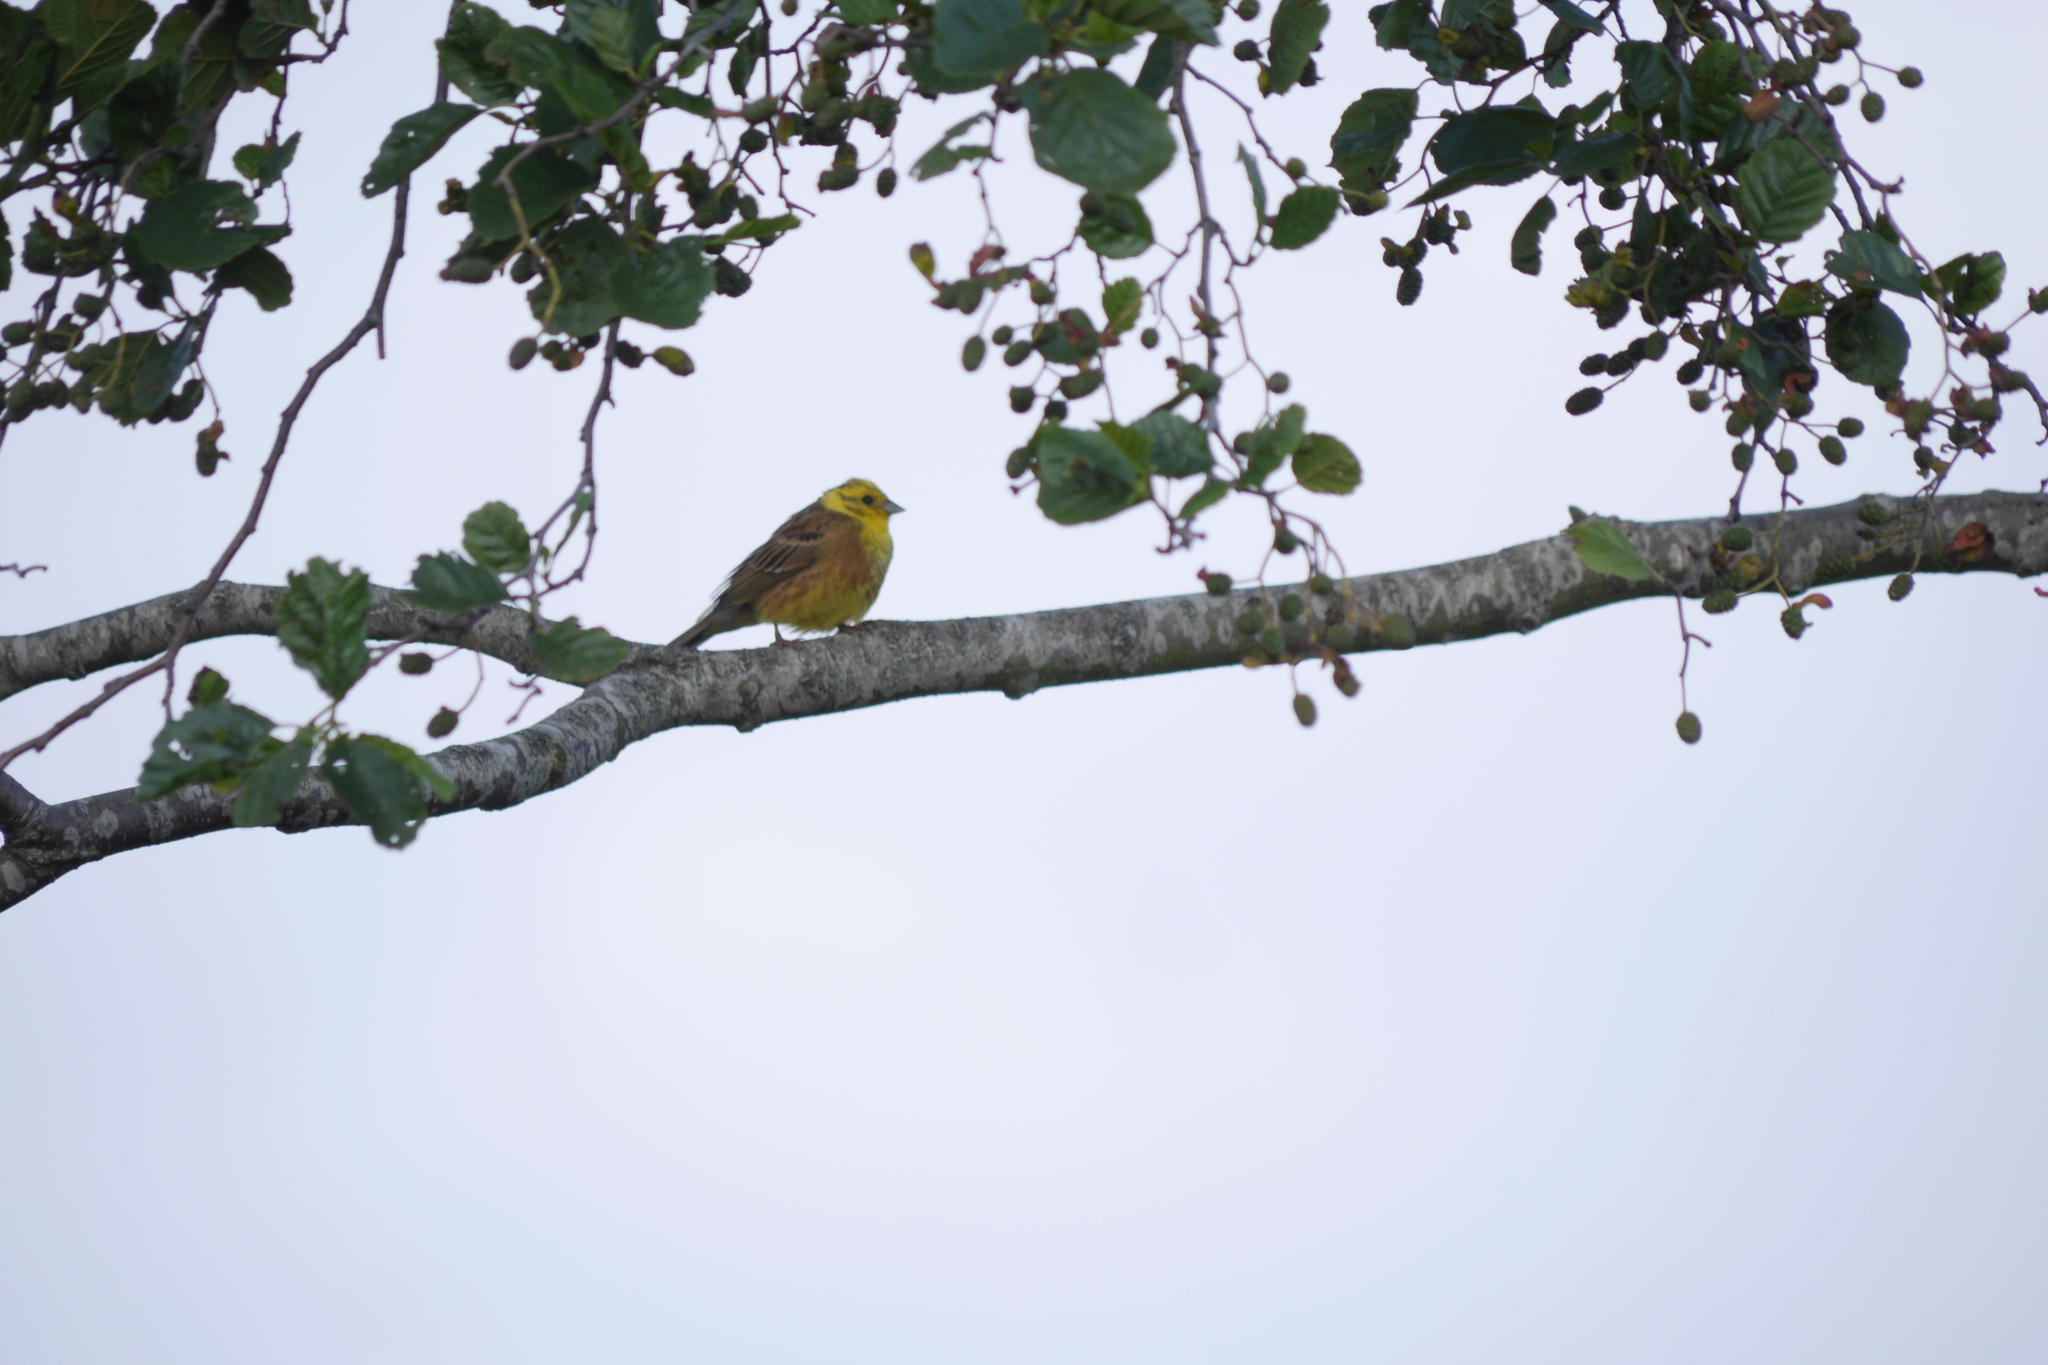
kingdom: Animalia
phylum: Chordata
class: Aves
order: Passeriformes
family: Emberizidae
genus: Emberiza
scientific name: Emberiza citrinella
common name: Yellowhammer
